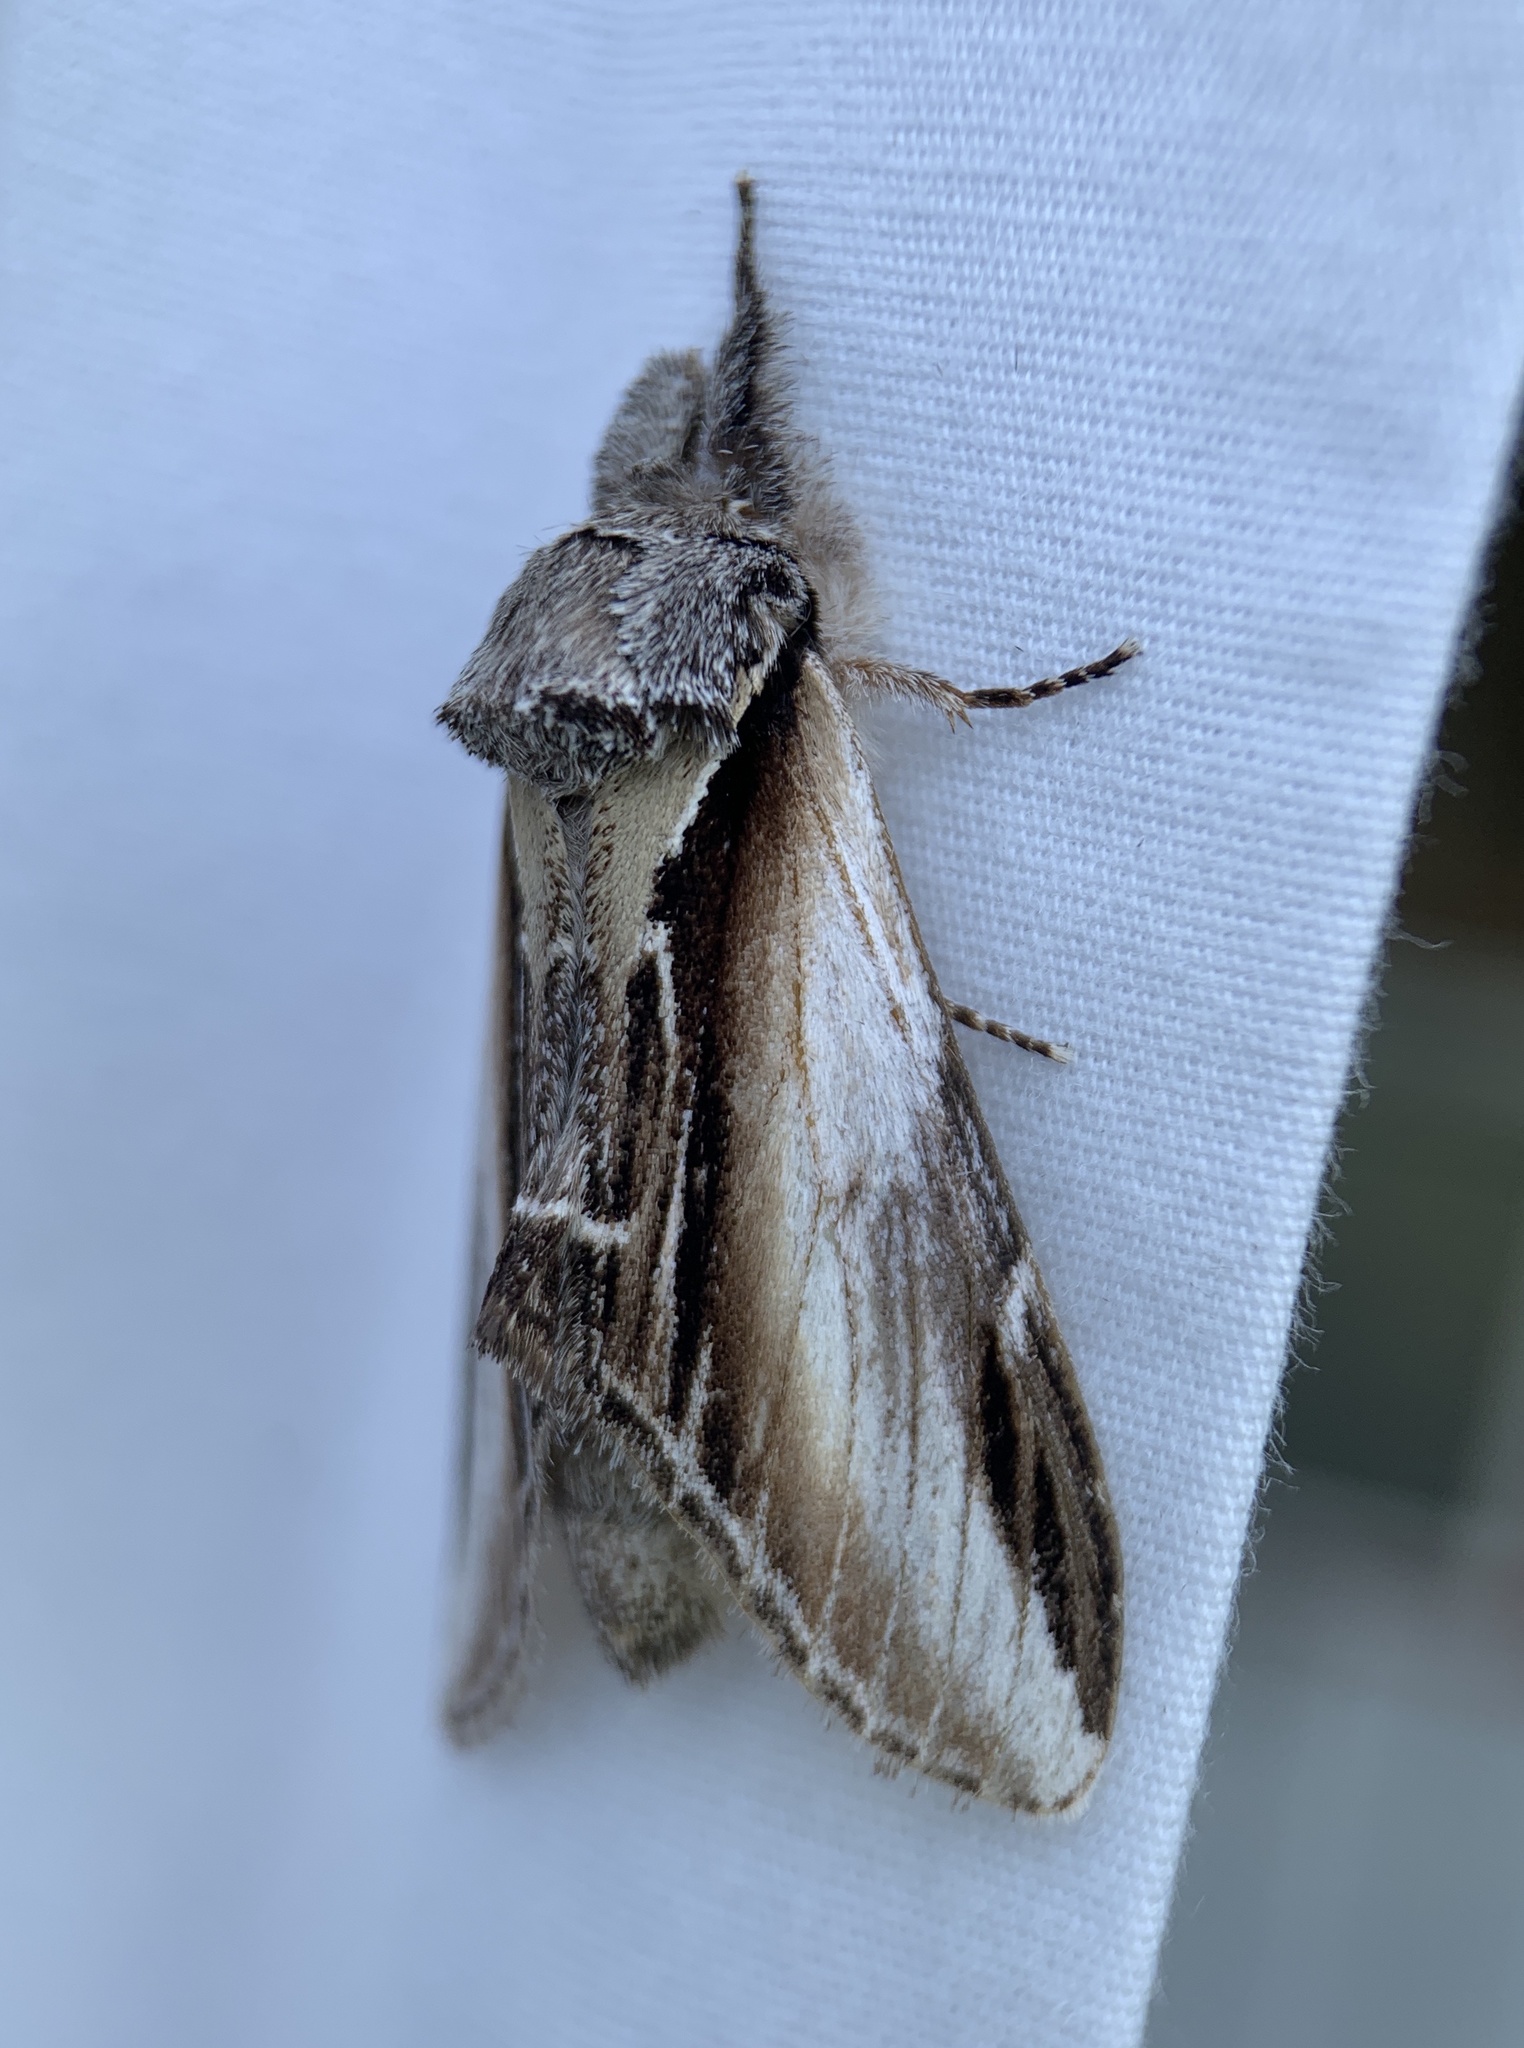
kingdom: Animalia
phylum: Arthropoda
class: Insecta
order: Lepidoptera
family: Notodontidae
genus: Pheosia
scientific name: Pheosia rimosa
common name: Black-rimmed prominent
